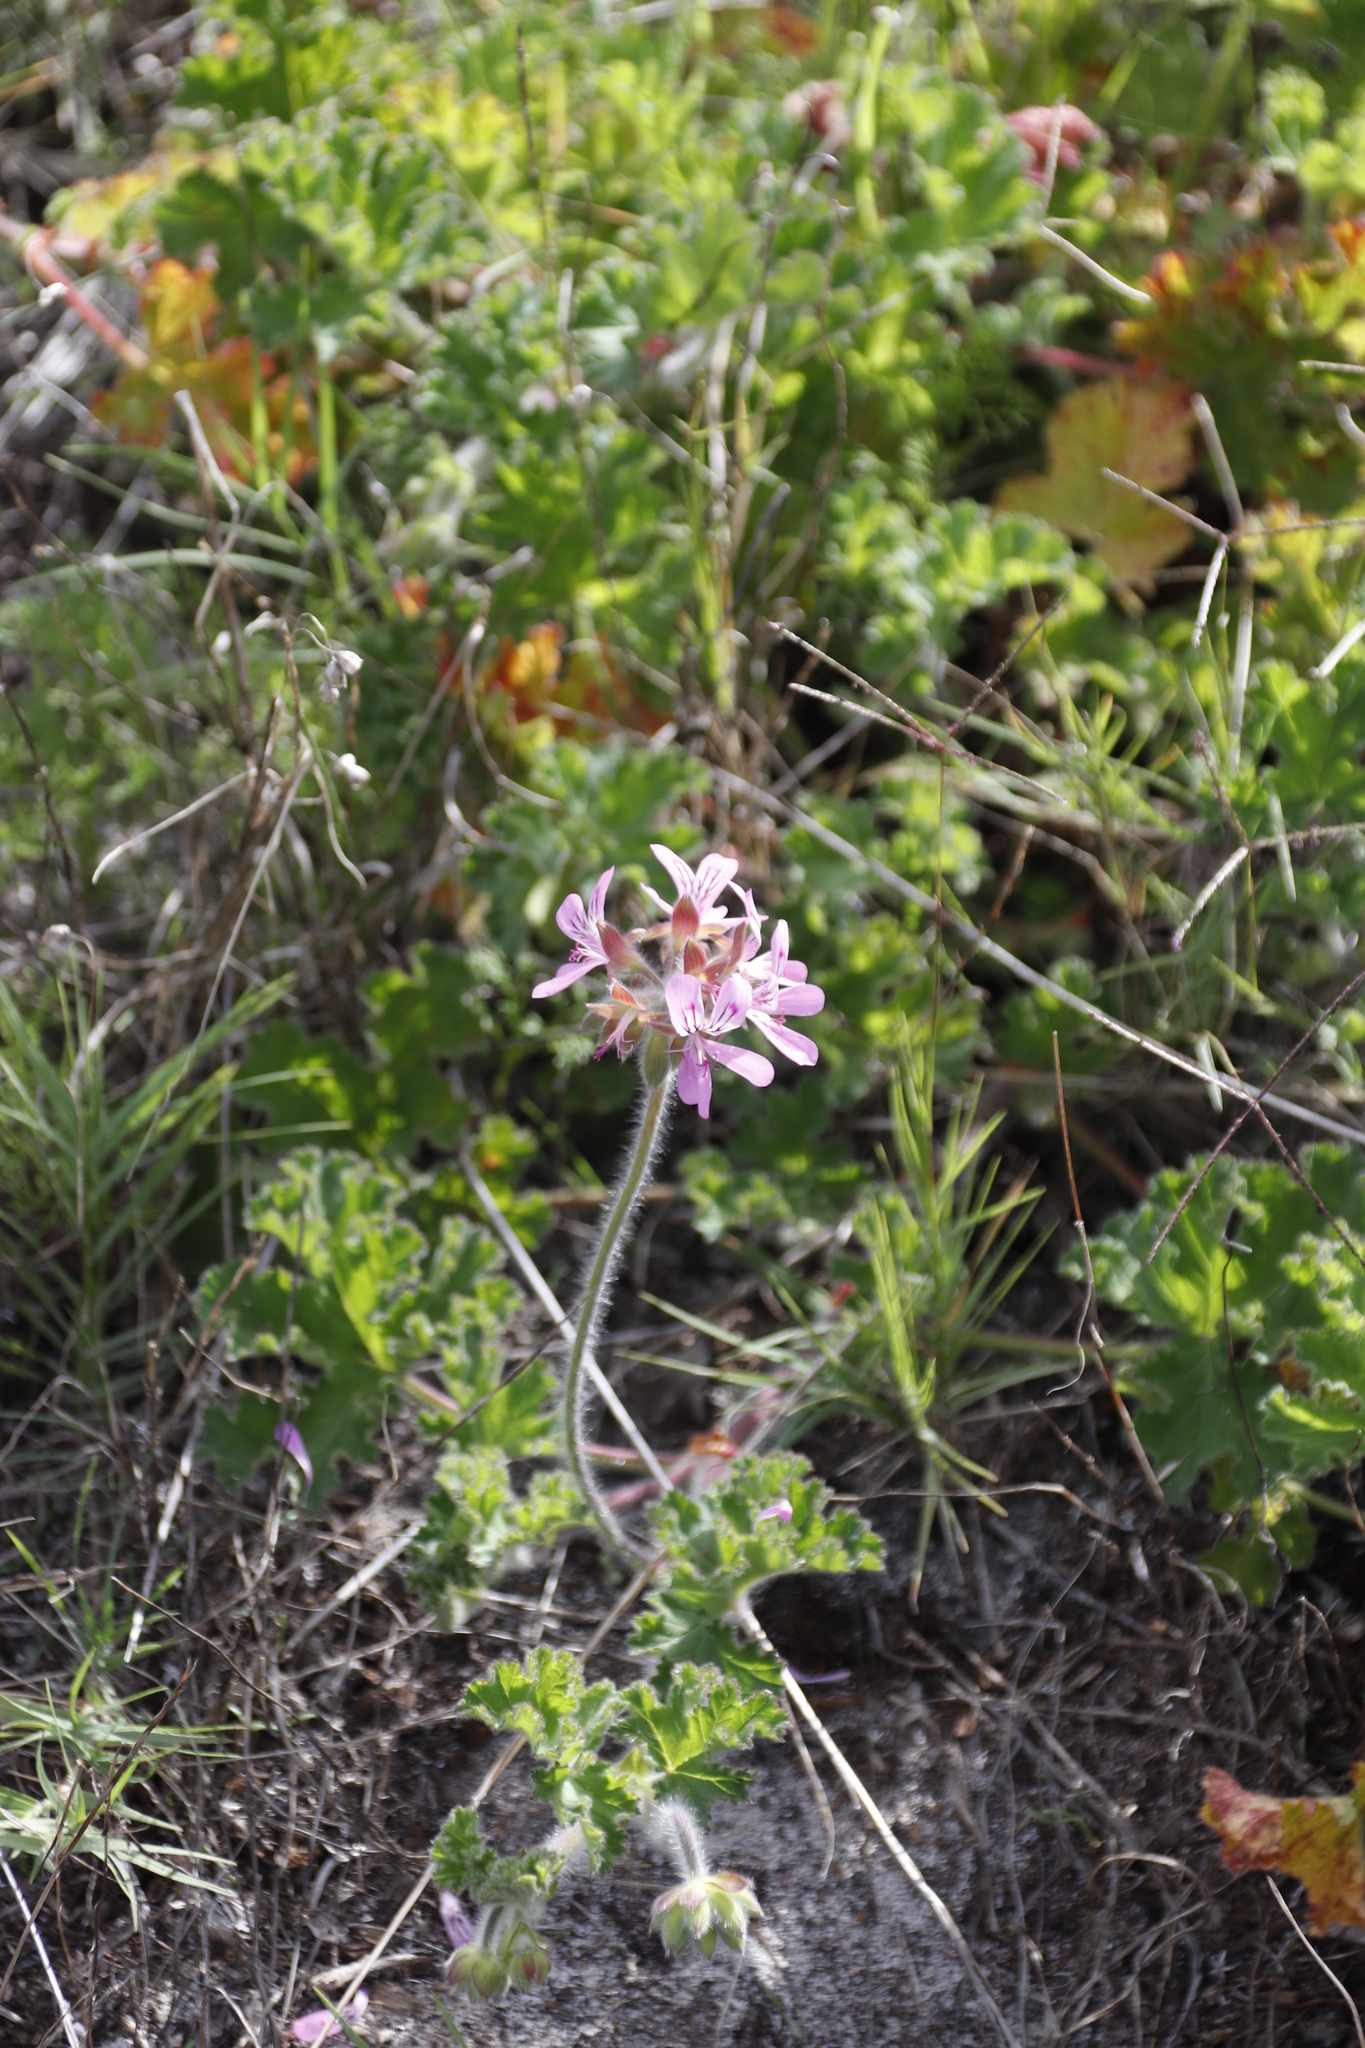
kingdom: Plantae
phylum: Tracheophyta
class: Magnoliopsida
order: Geraniales
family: Geraniaceae
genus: Pelargonium
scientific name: Pelargonium capitatum
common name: Rose scented geranium
